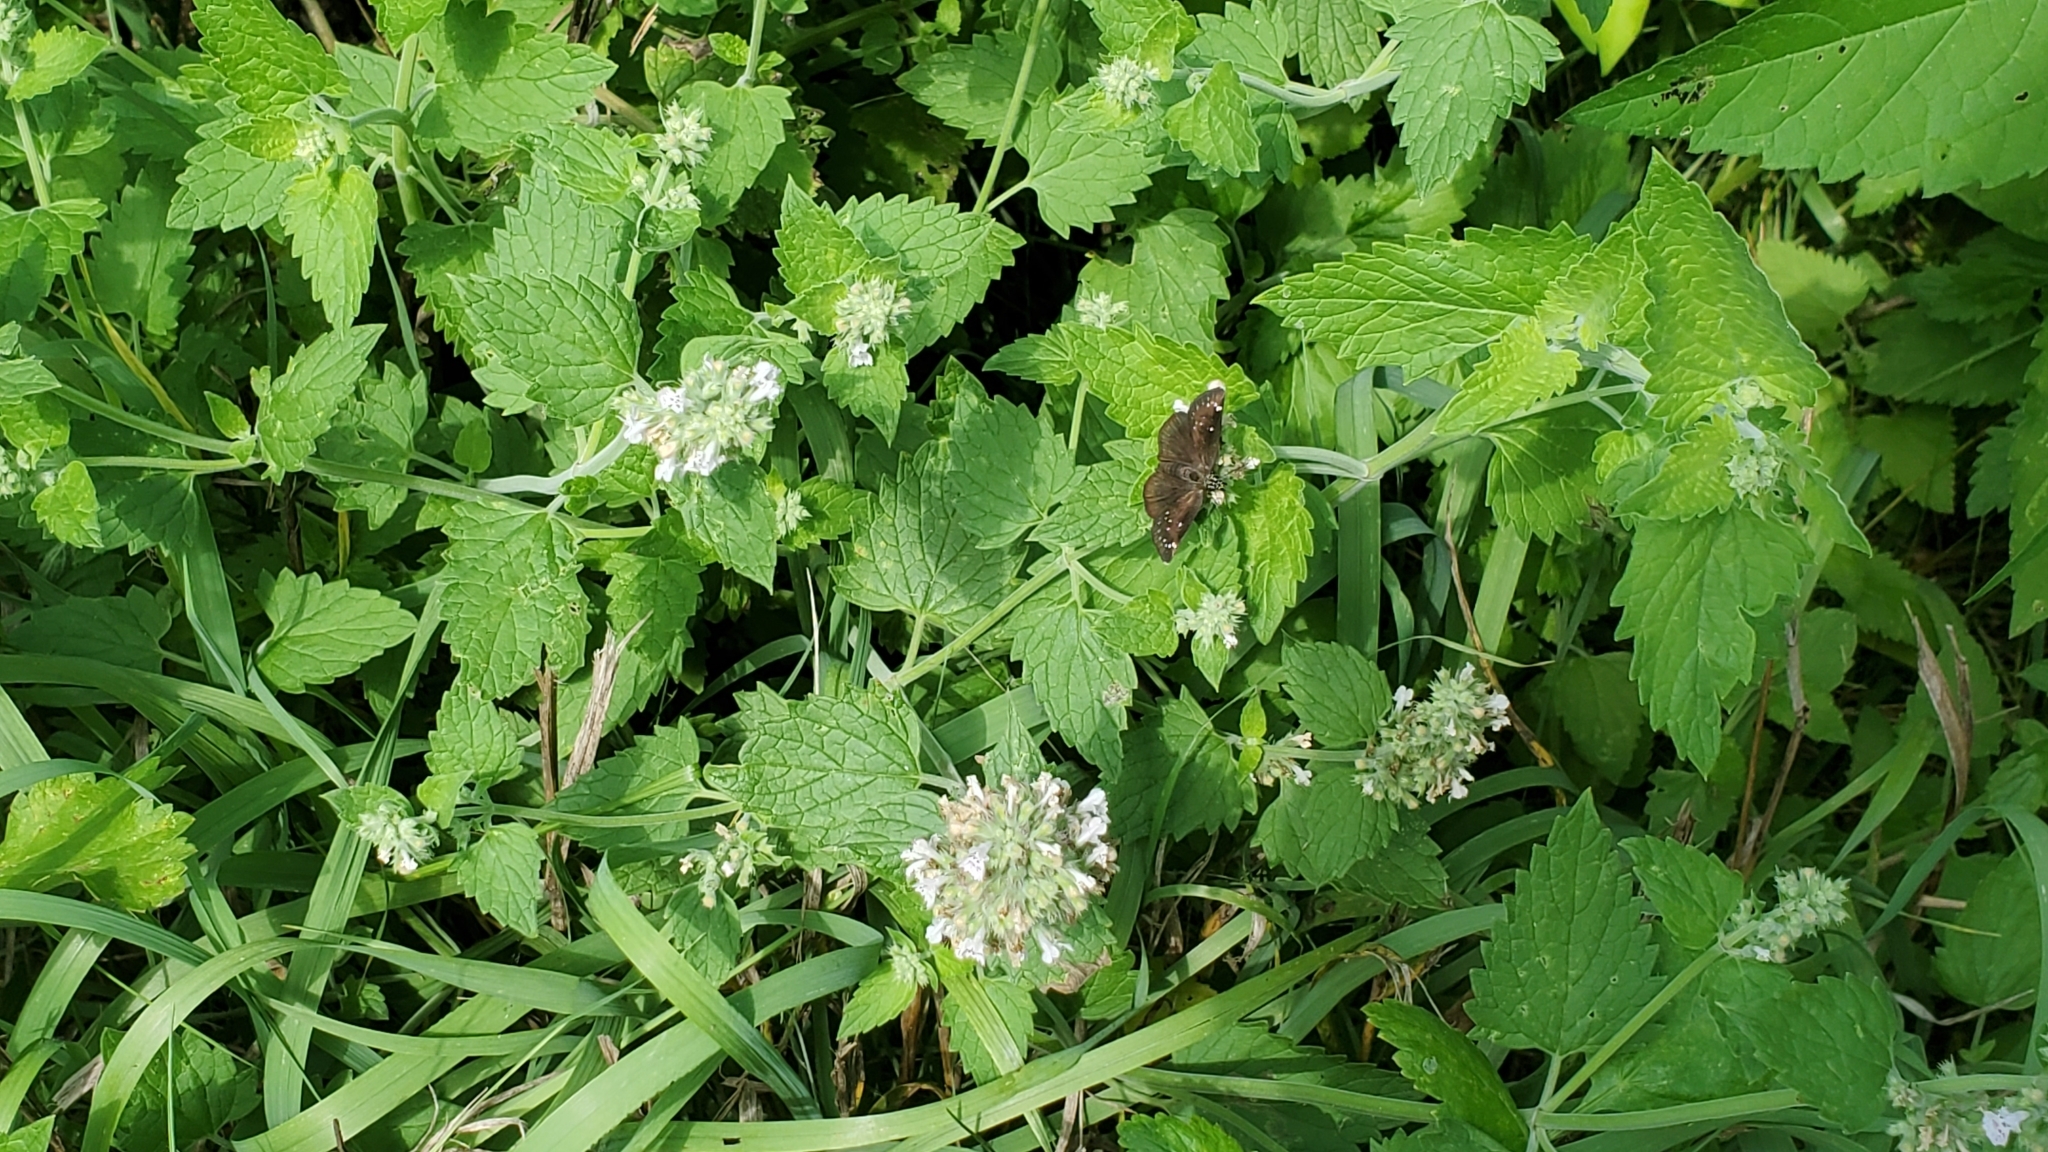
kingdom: Plantae
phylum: Tracheophyta
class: Magnoliopsida
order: Lamiales
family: Lamiaceae
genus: Nepeta
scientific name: Nepeta cataria
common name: Catnip
